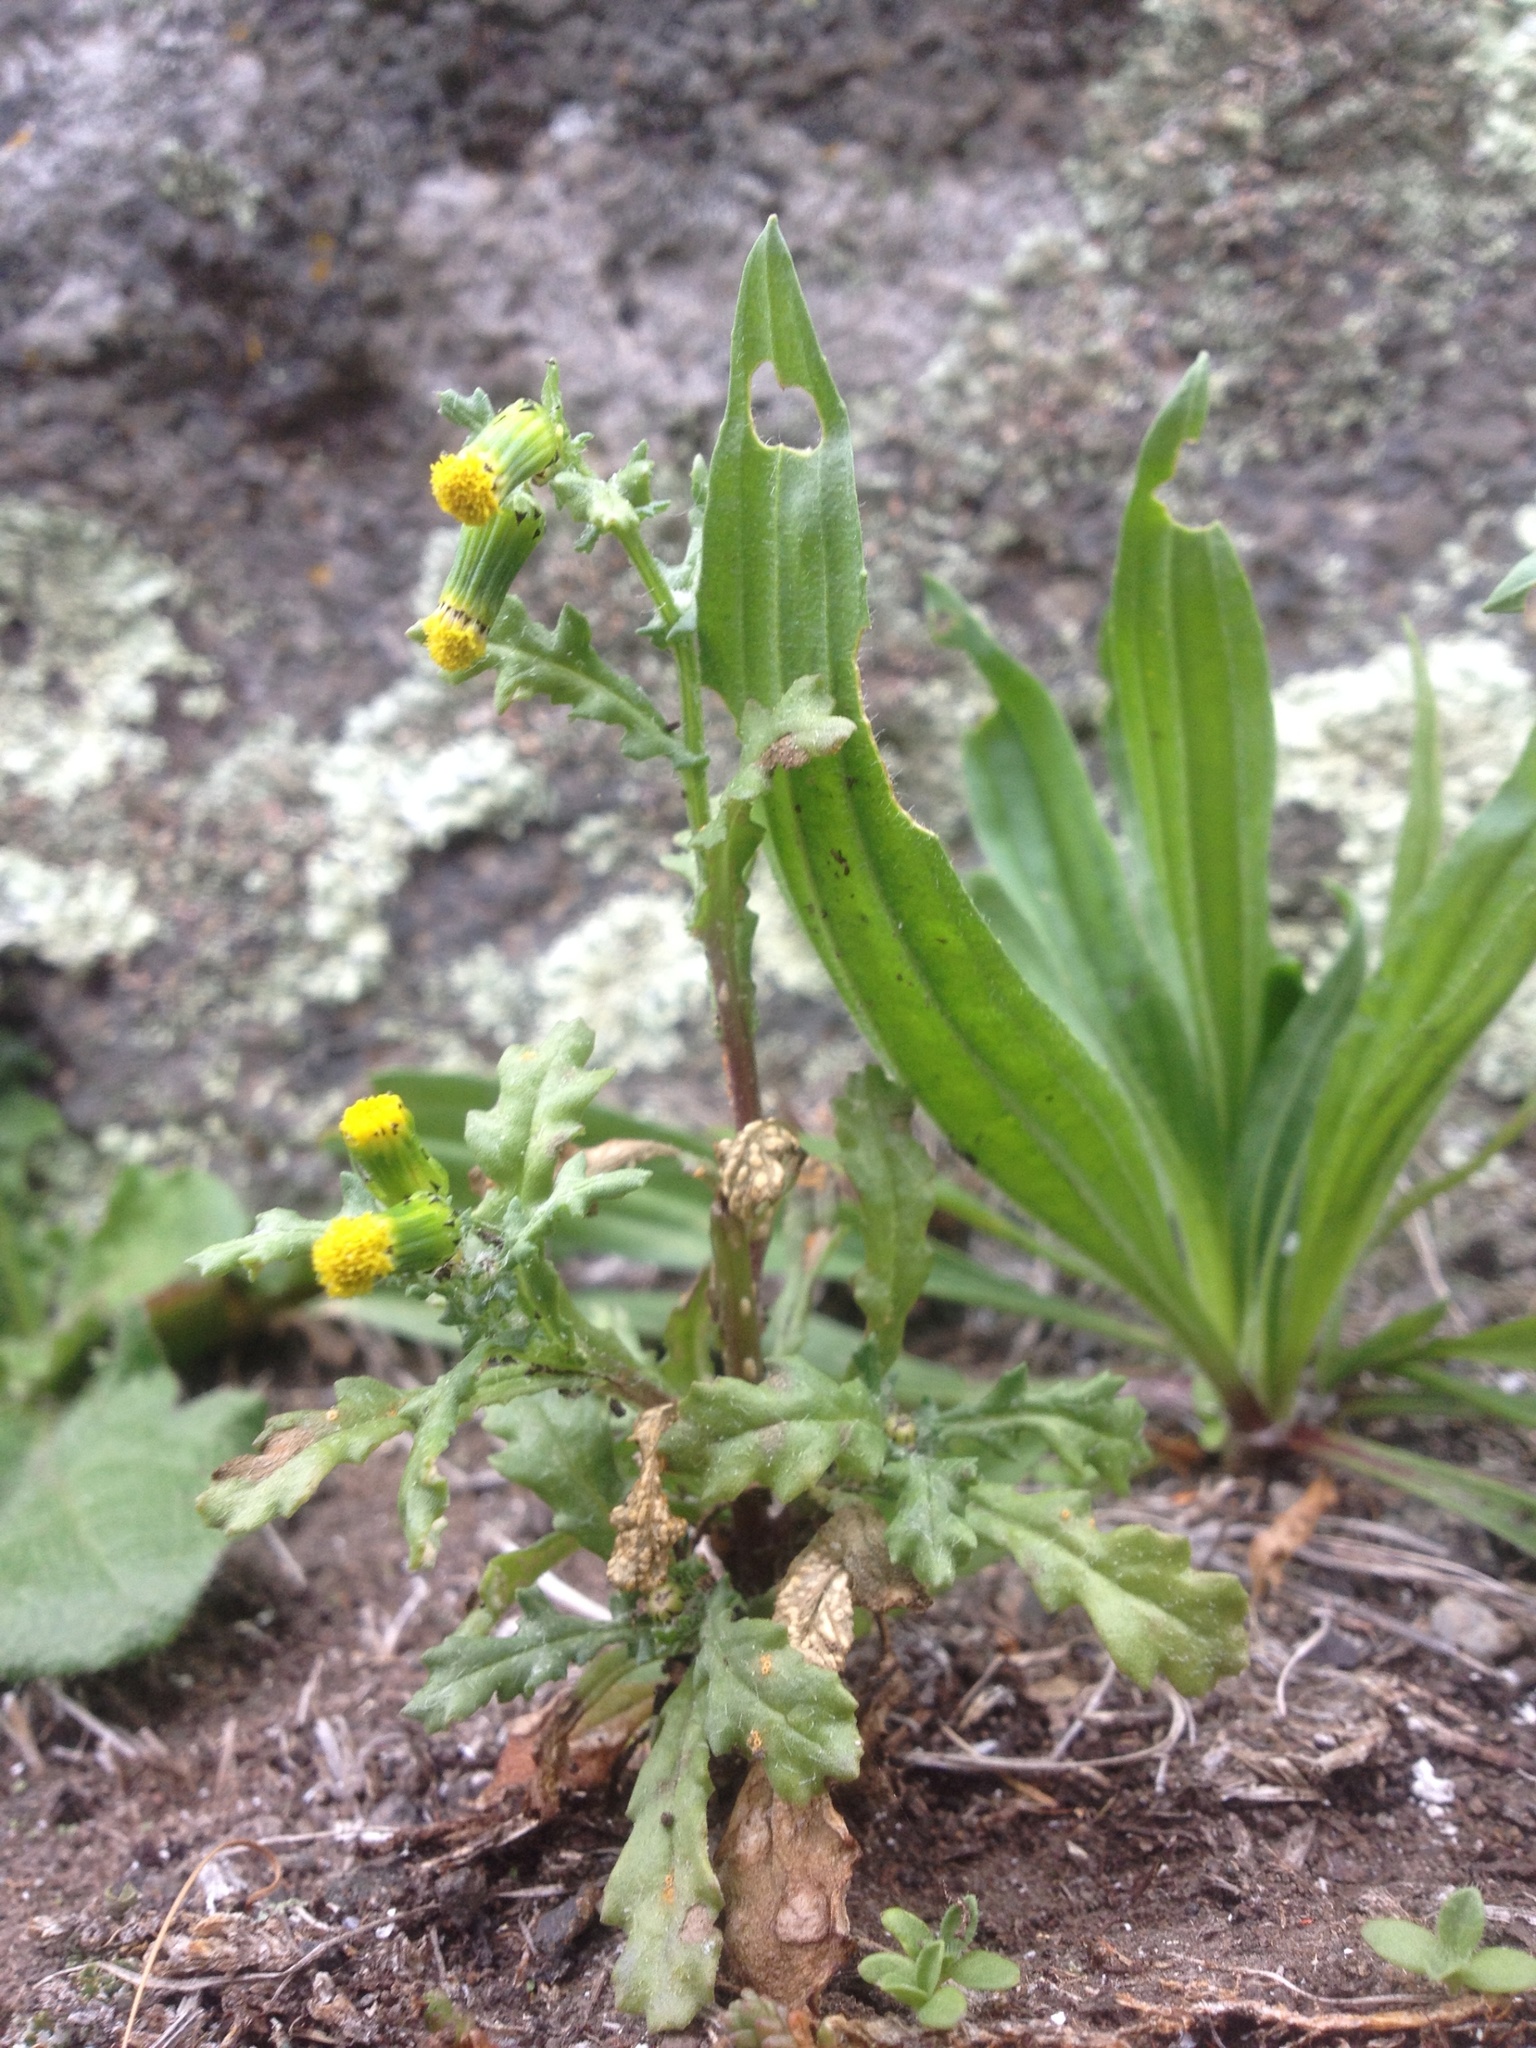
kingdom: Plantae
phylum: Tracheophyta
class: Magnoliopsida
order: Asterales
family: Asteraceae
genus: Senecio
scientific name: Senecio vulgaris
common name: Old-man-in-the-spring
